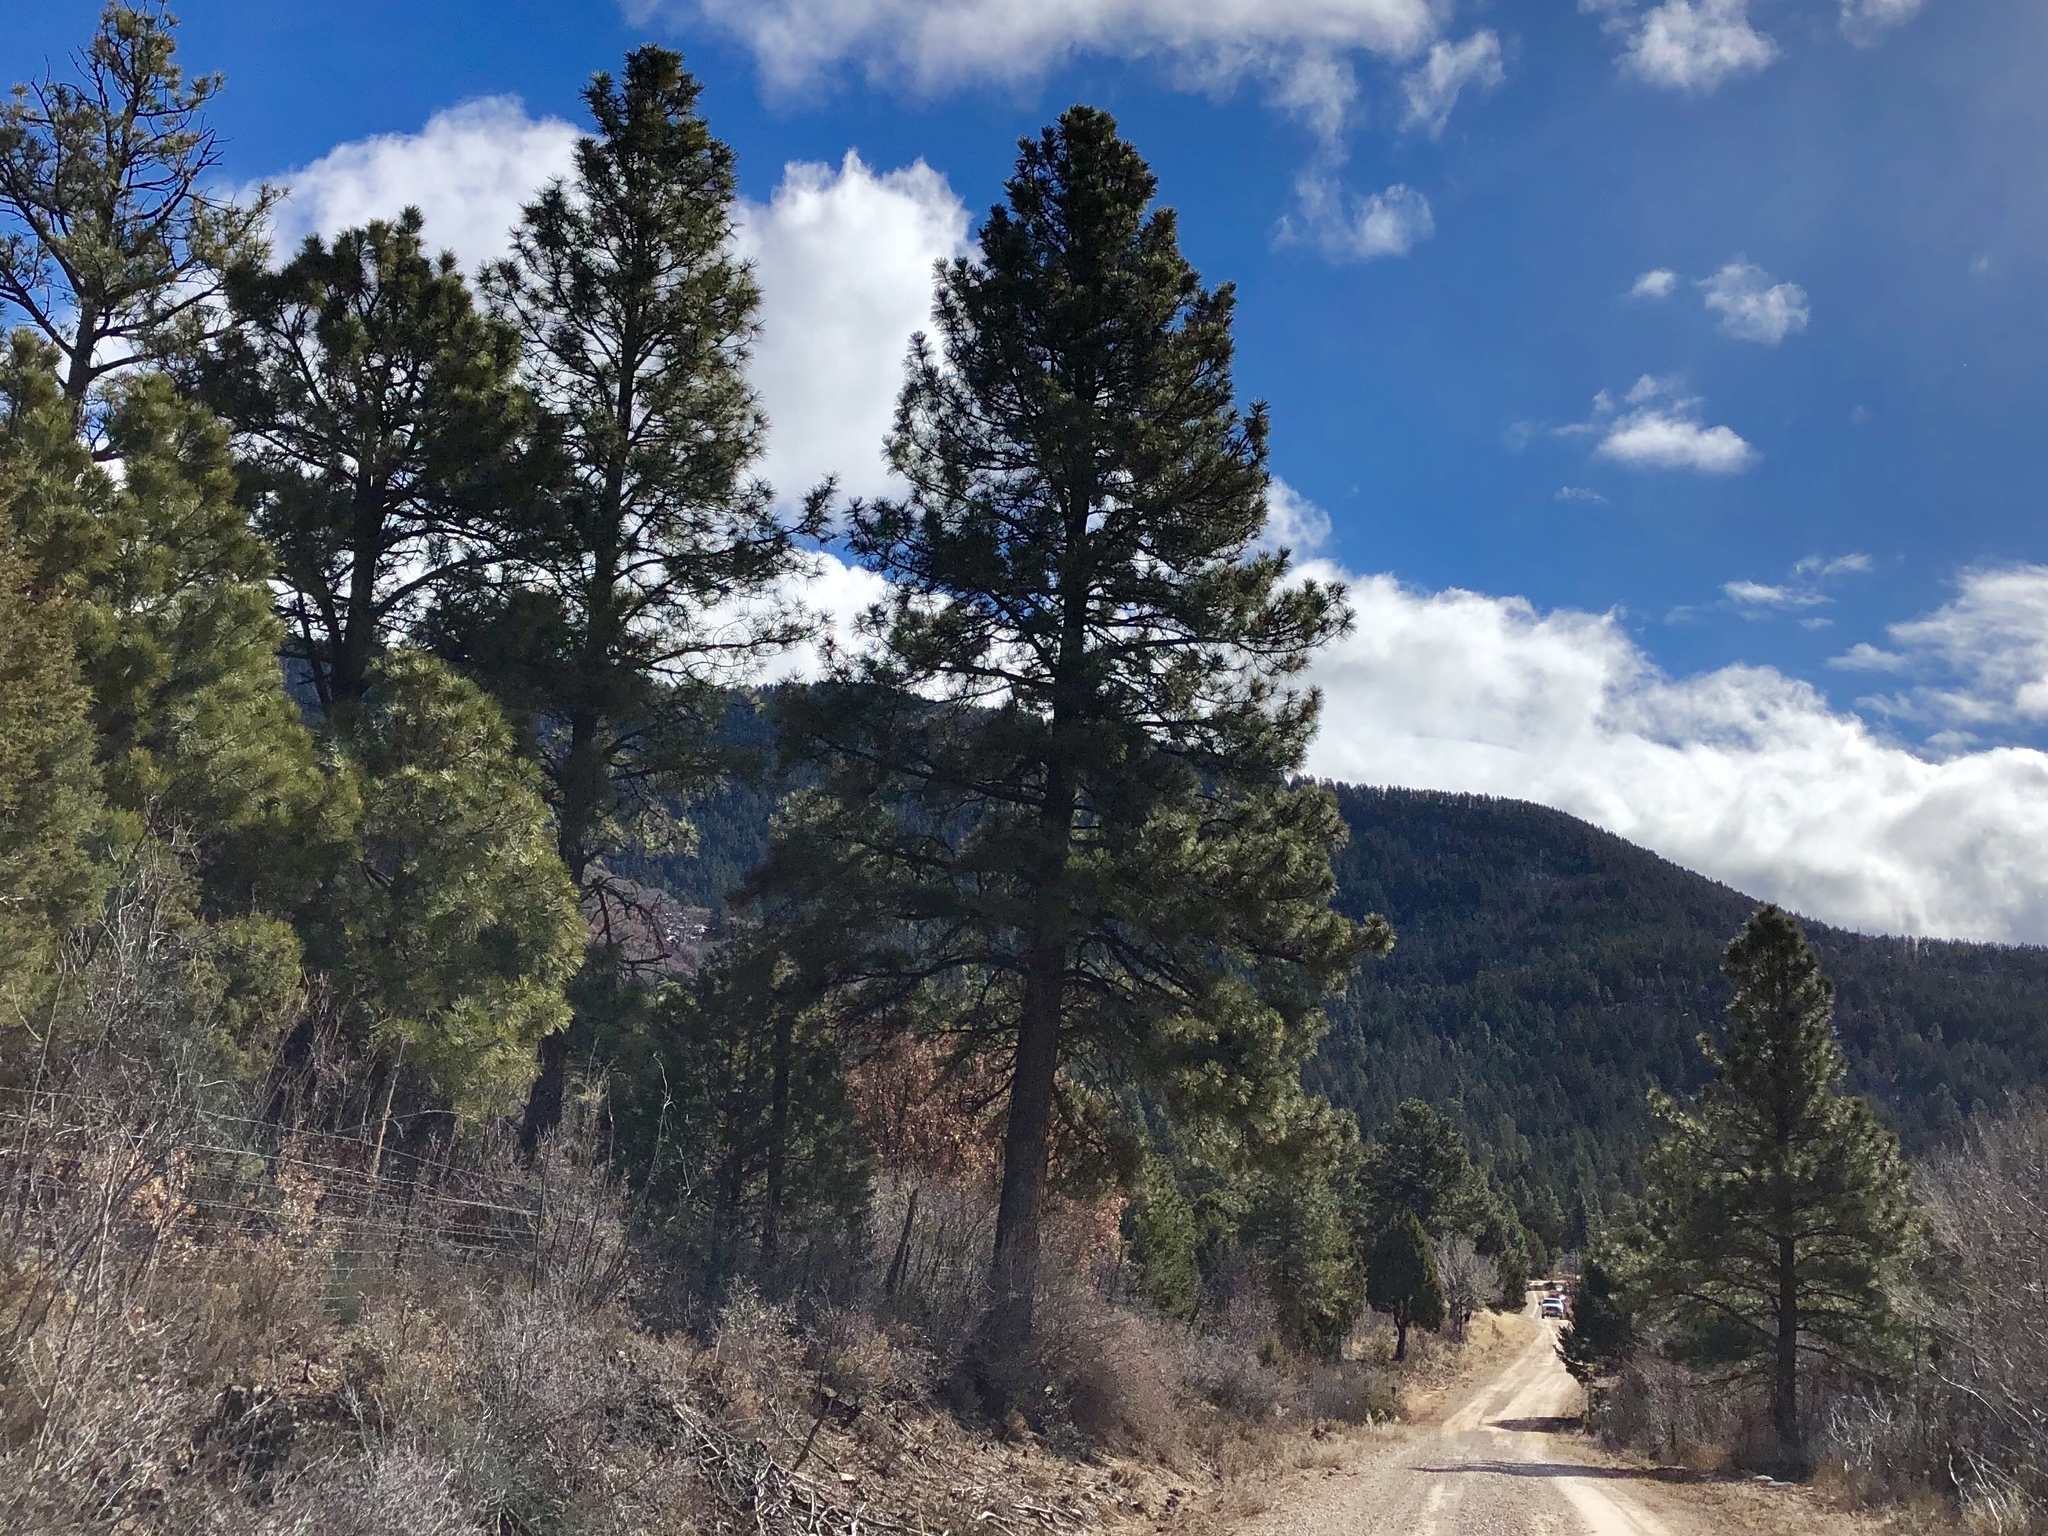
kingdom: Plantae
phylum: Tracheophyta
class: Pinopsida
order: Pinales
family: Pinaceae
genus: Pinus
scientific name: Pinus ponderosa
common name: Western yellow-pine
